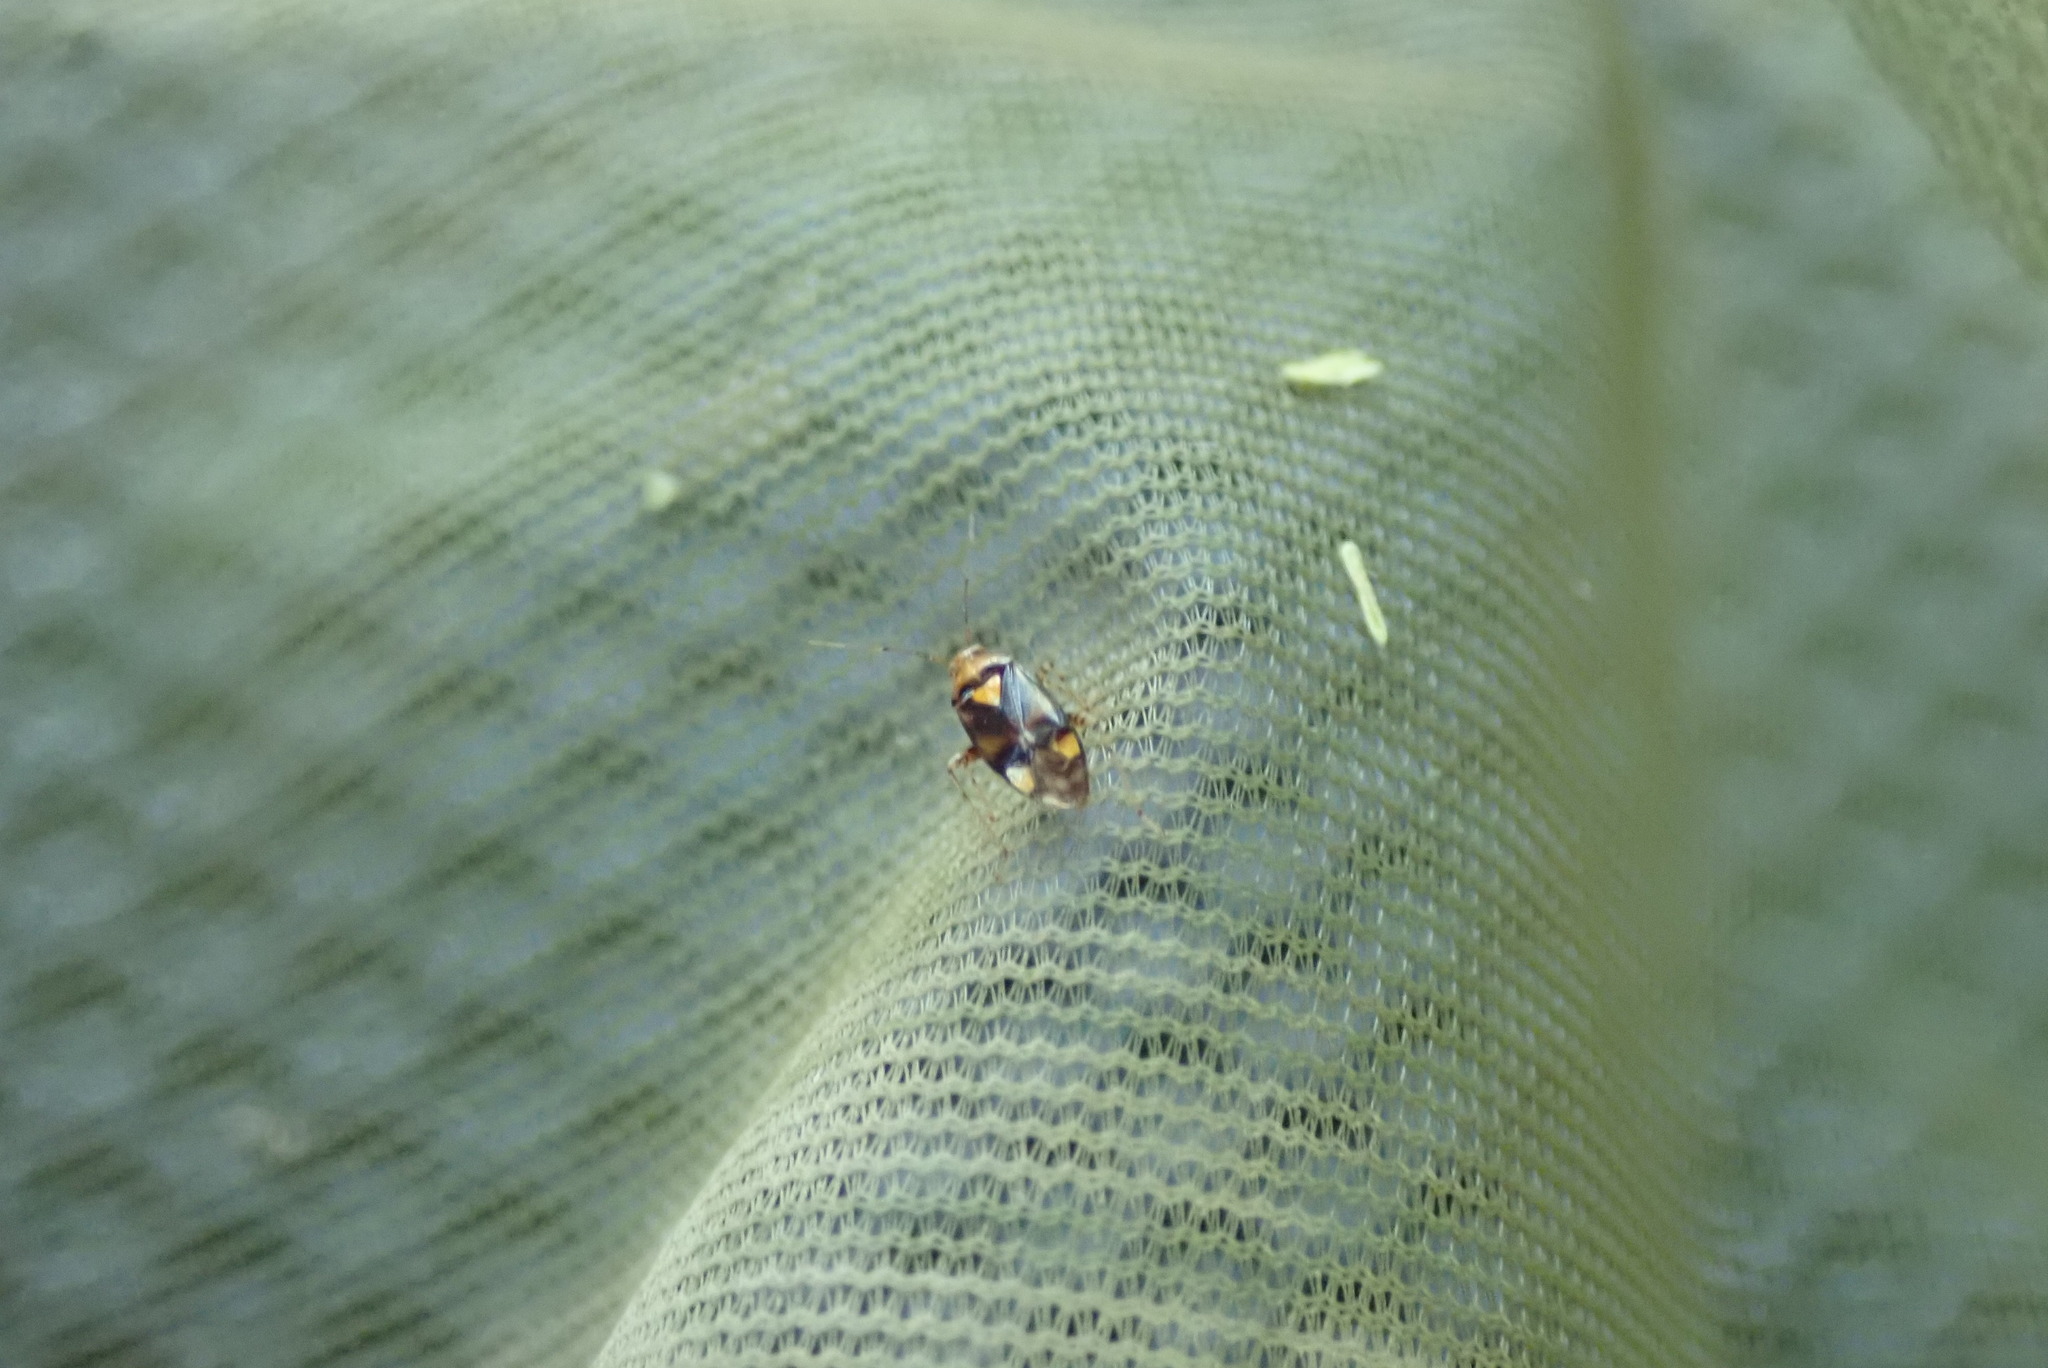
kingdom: Animalia
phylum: Arthropoda
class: Insecta
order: Hemiptera
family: Miridae
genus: Liocoris
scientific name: Liocoris tripustulatus
